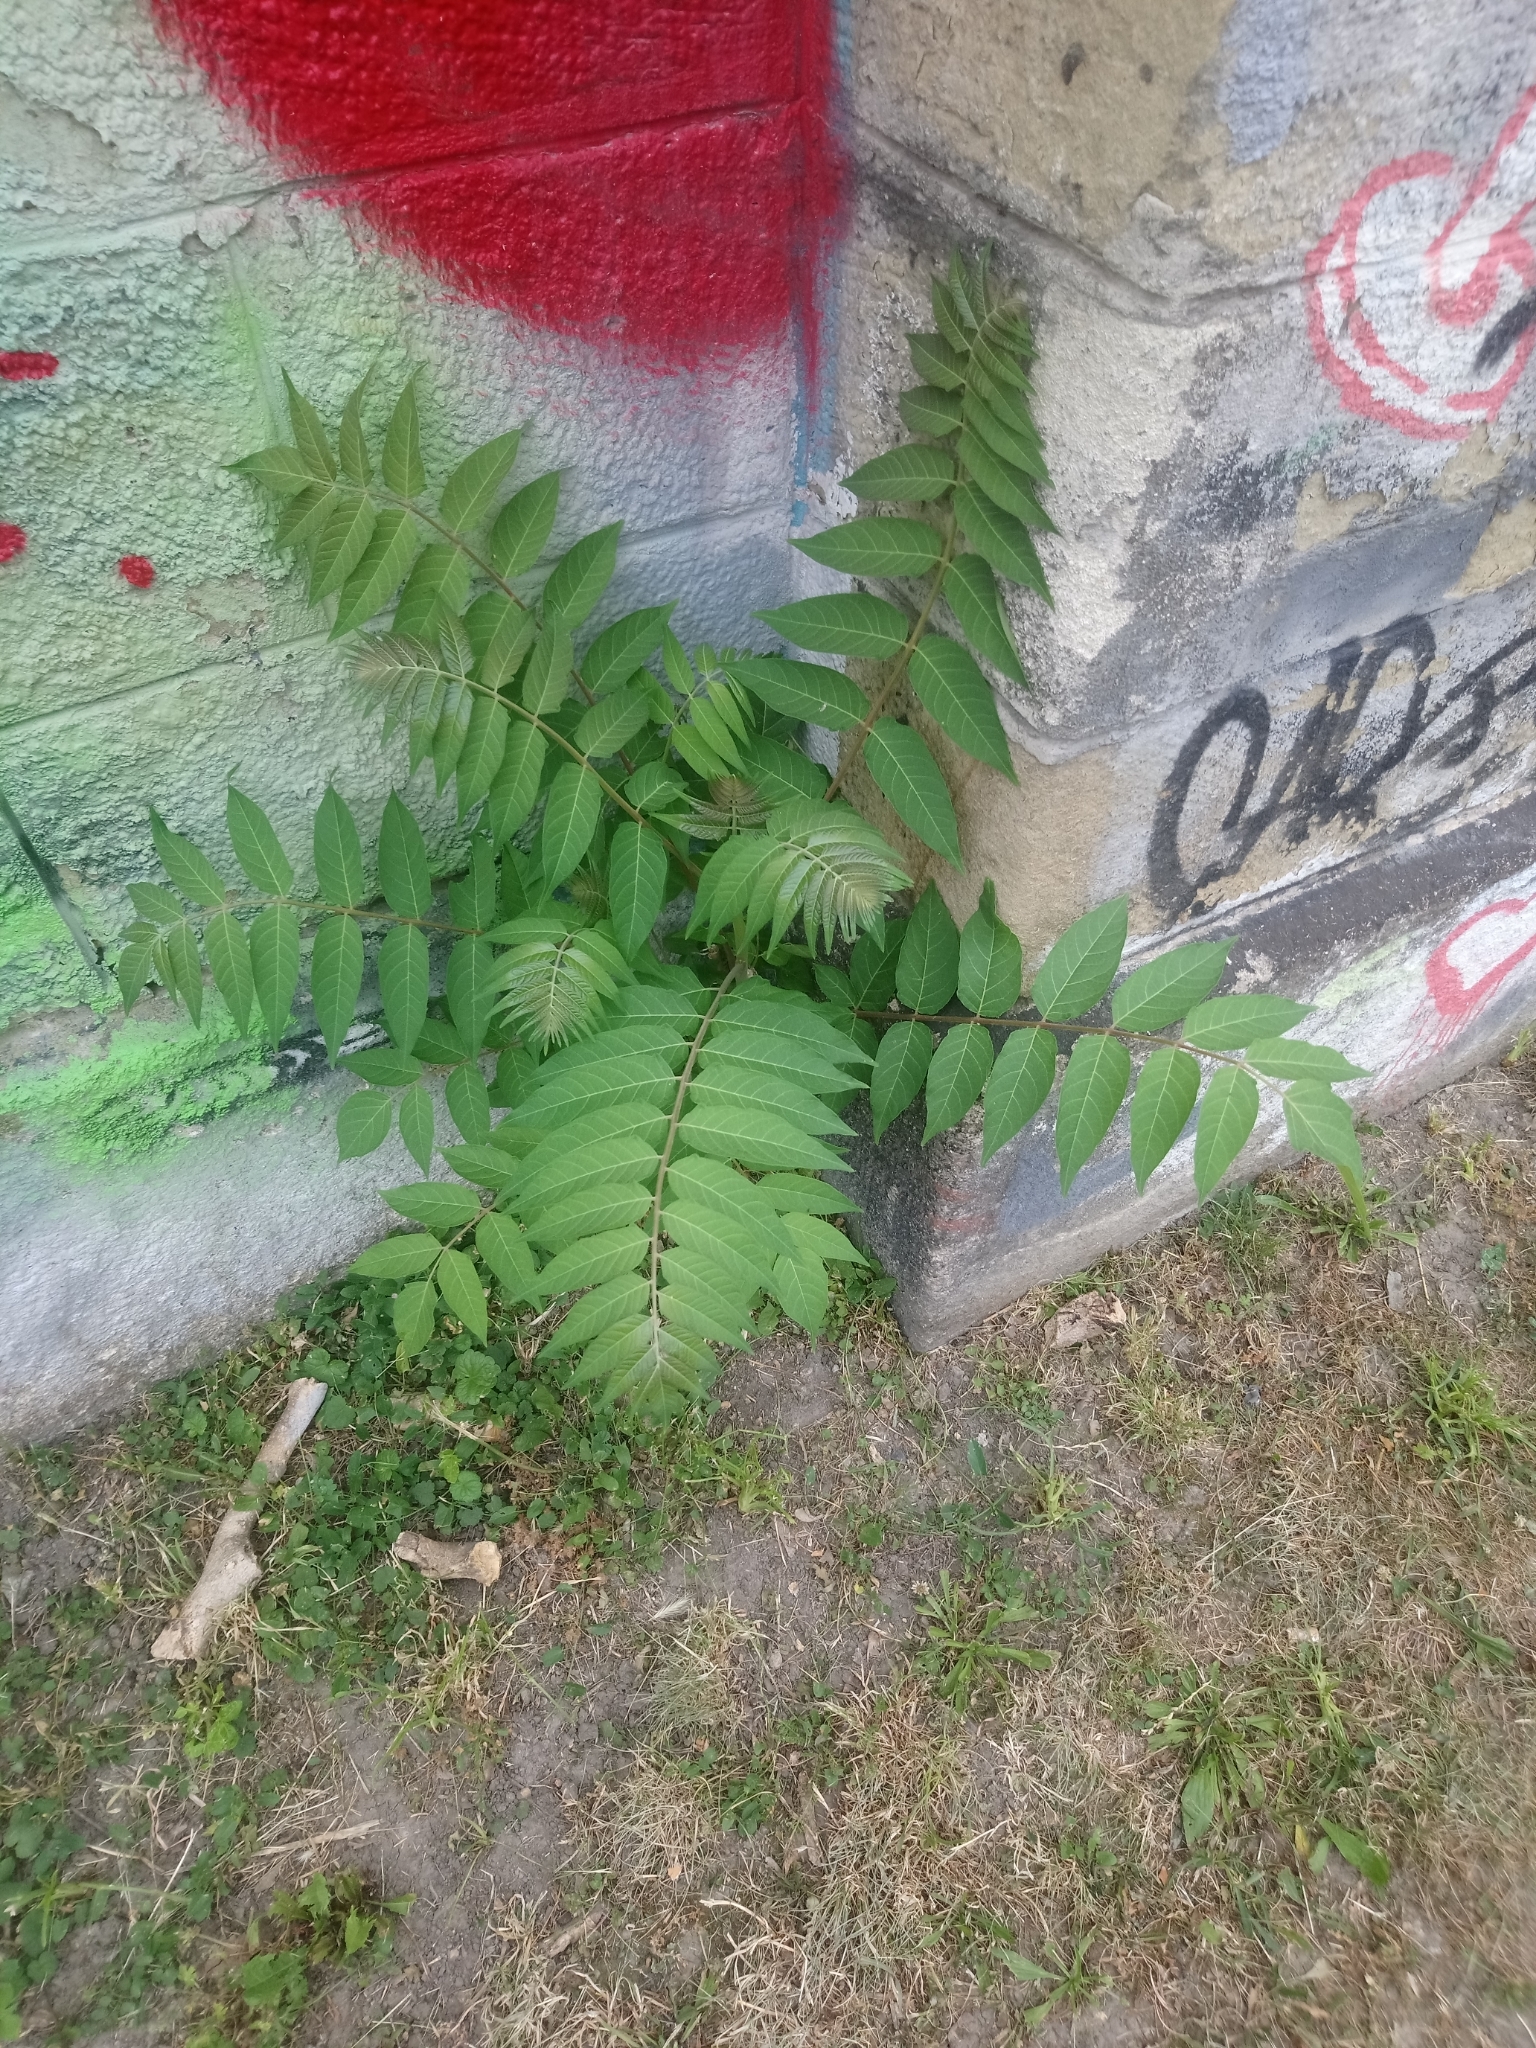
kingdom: Plantae
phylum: Tracheophyta
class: Magnoliopsida
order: Sapindales
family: Simaroubaceae
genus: Ailanthus
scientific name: Ailanthus altissima
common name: Tree-of-heaven
